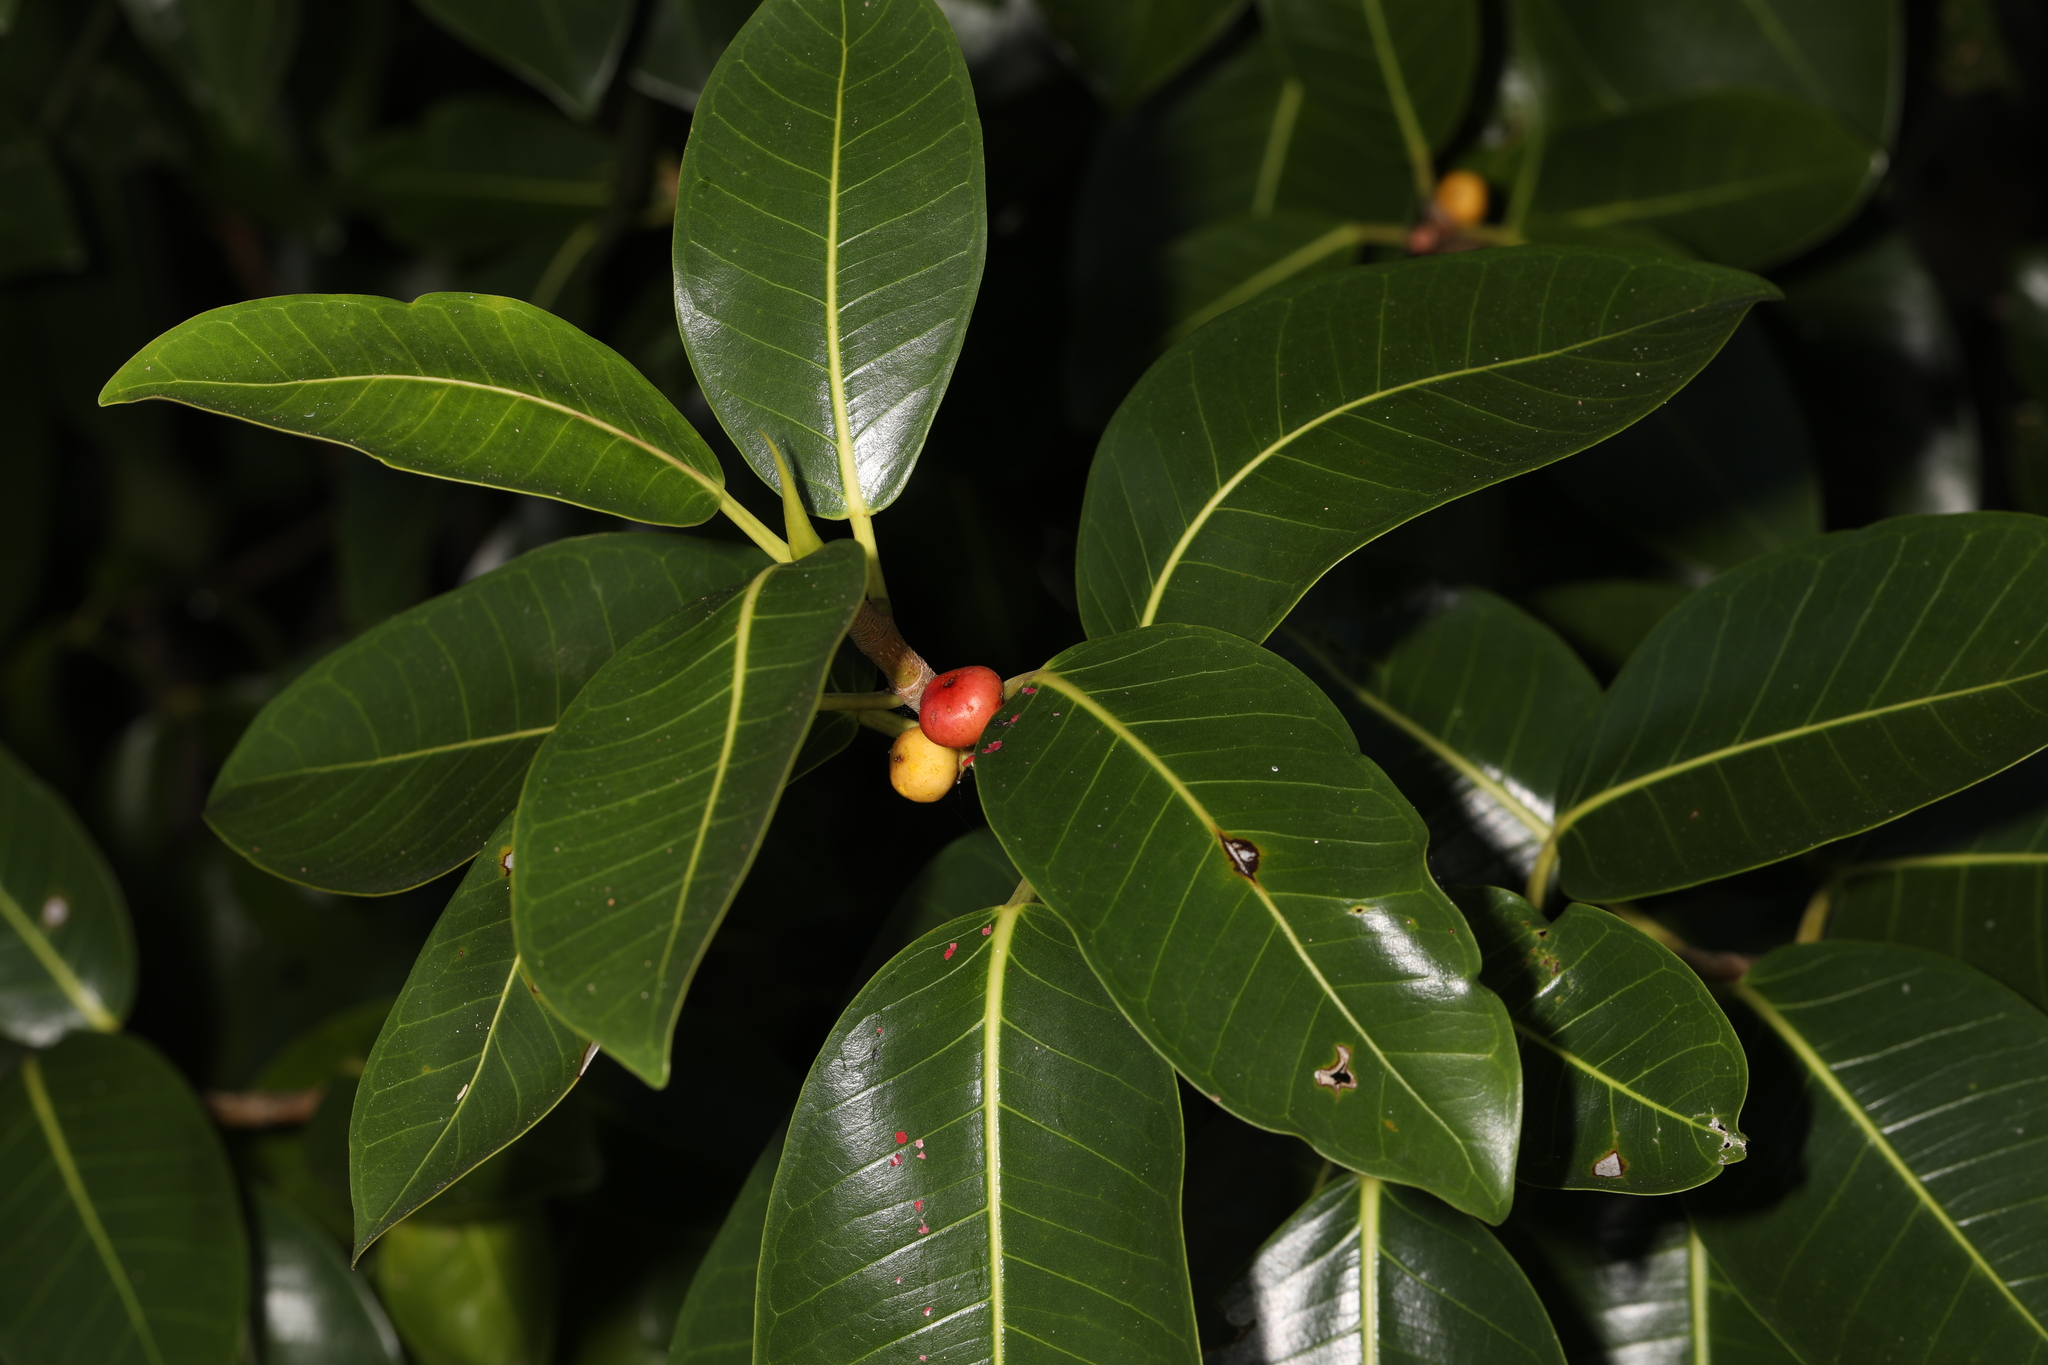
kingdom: Plantae
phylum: Tracheophyta
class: Magnoliopsida
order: Rosales
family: Moraceae
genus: Ficus
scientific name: Ficus aurea
